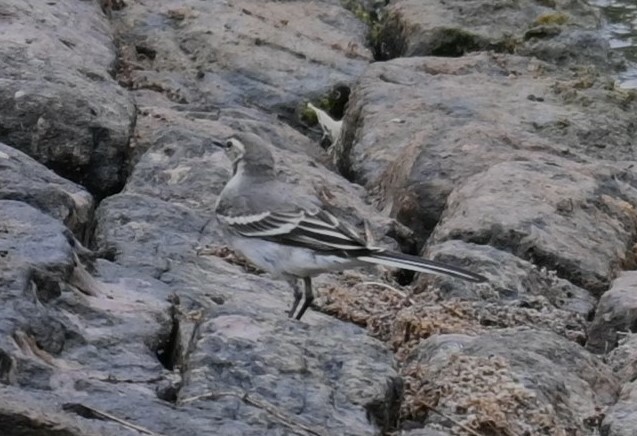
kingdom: Animalia
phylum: Chordata
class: Aves
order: Passeriformes
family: Motacillidae
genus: Motacilla
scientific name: Motacilla alba
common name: White wagtail
